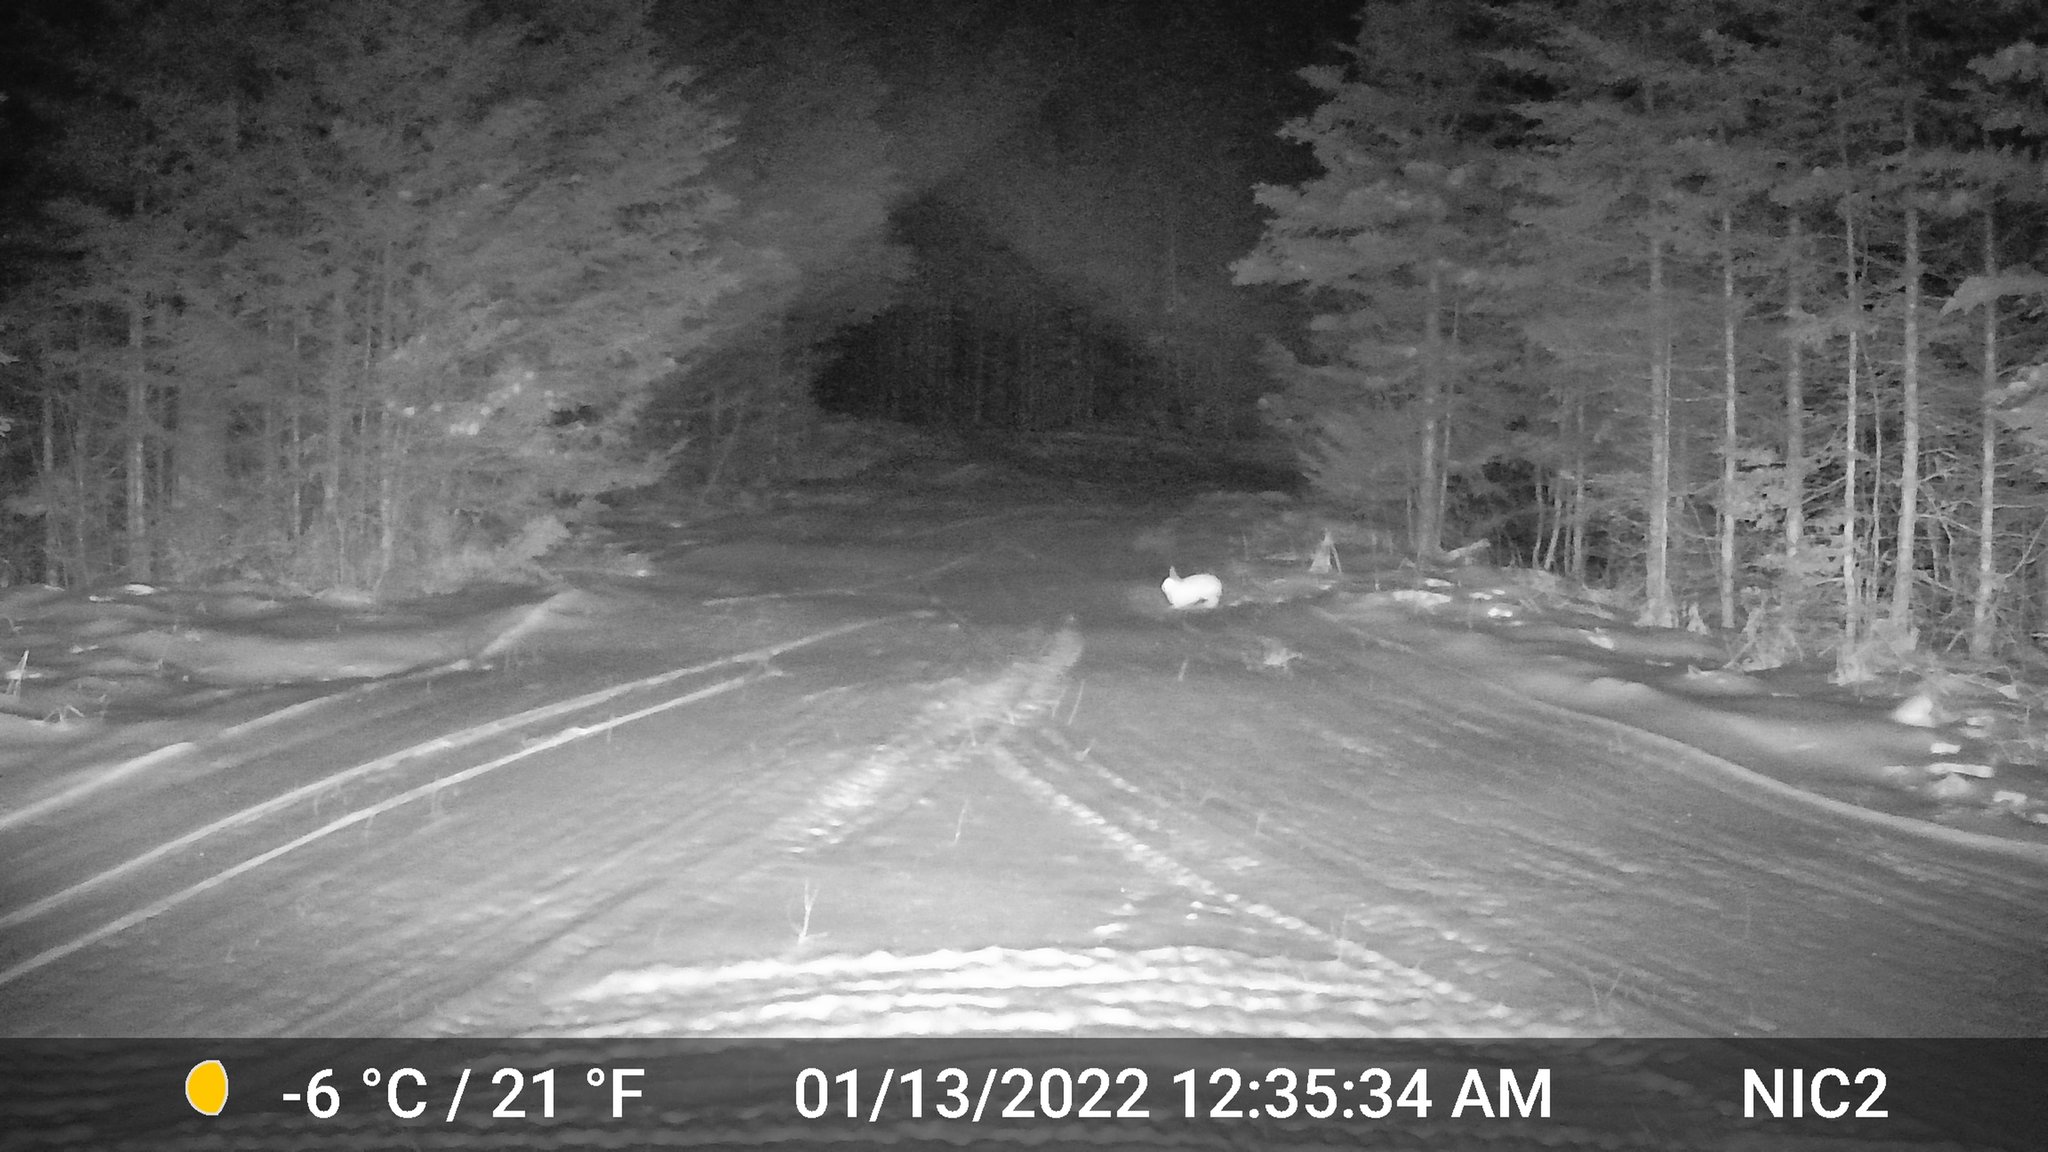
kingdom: Animalia
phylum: Chordata
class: Mammalia
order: Lagomorpha
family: Leporidae
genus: Lepus
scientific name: Lepus americanus
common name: Snowshoe hare
